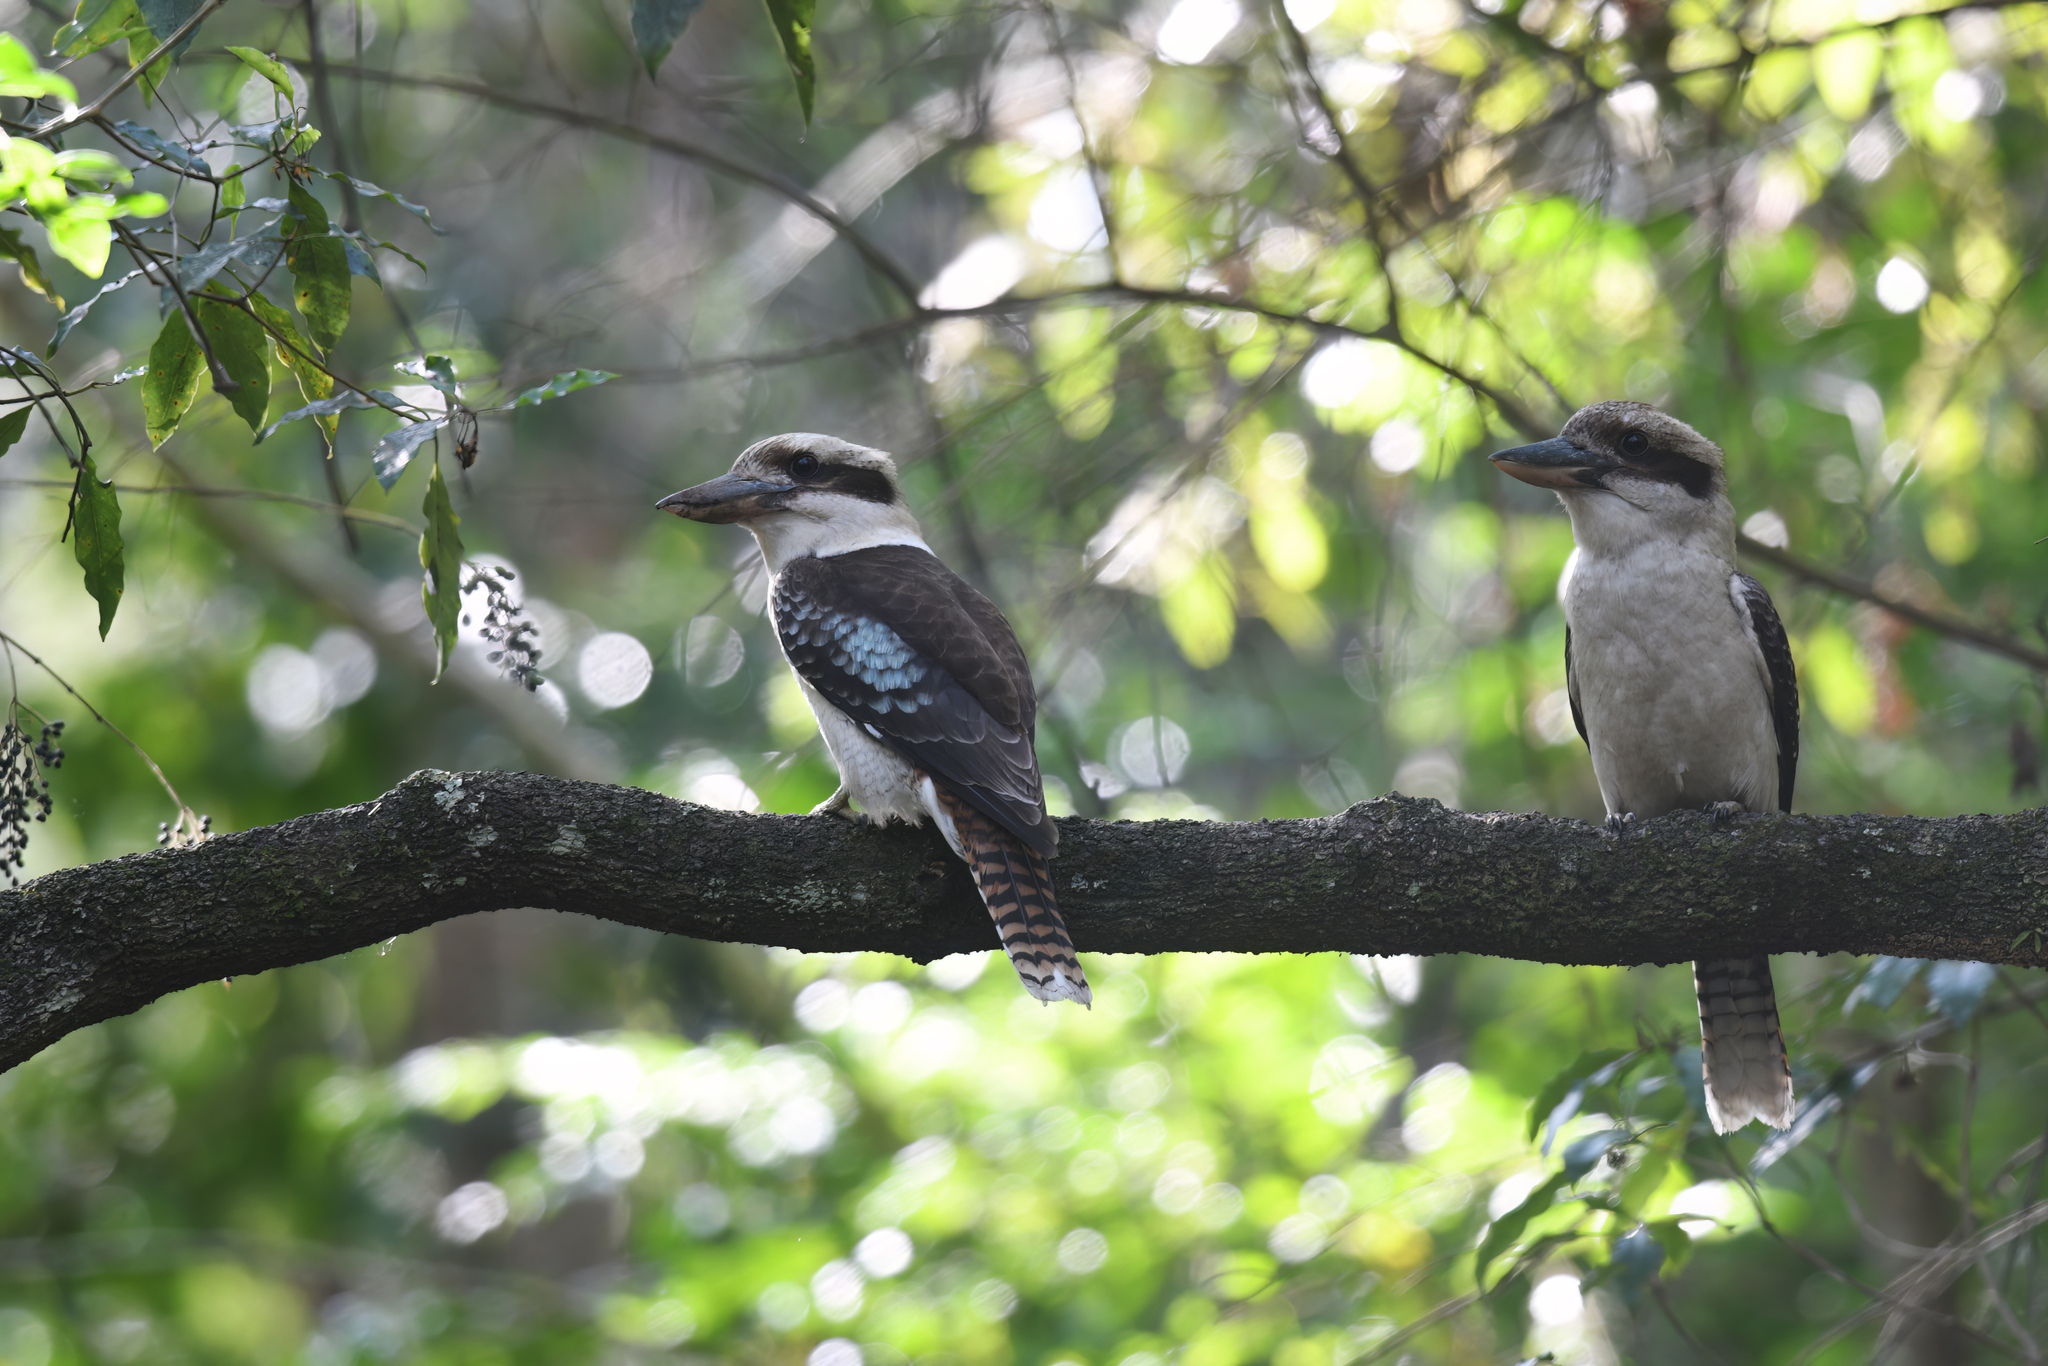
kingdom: Animalia
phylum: Chordata
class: Aves
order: Coraciiformes
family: Alcedinidae
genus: Dacelo
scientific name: Dacelo novaeguineae
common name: Laughing kookaburra
